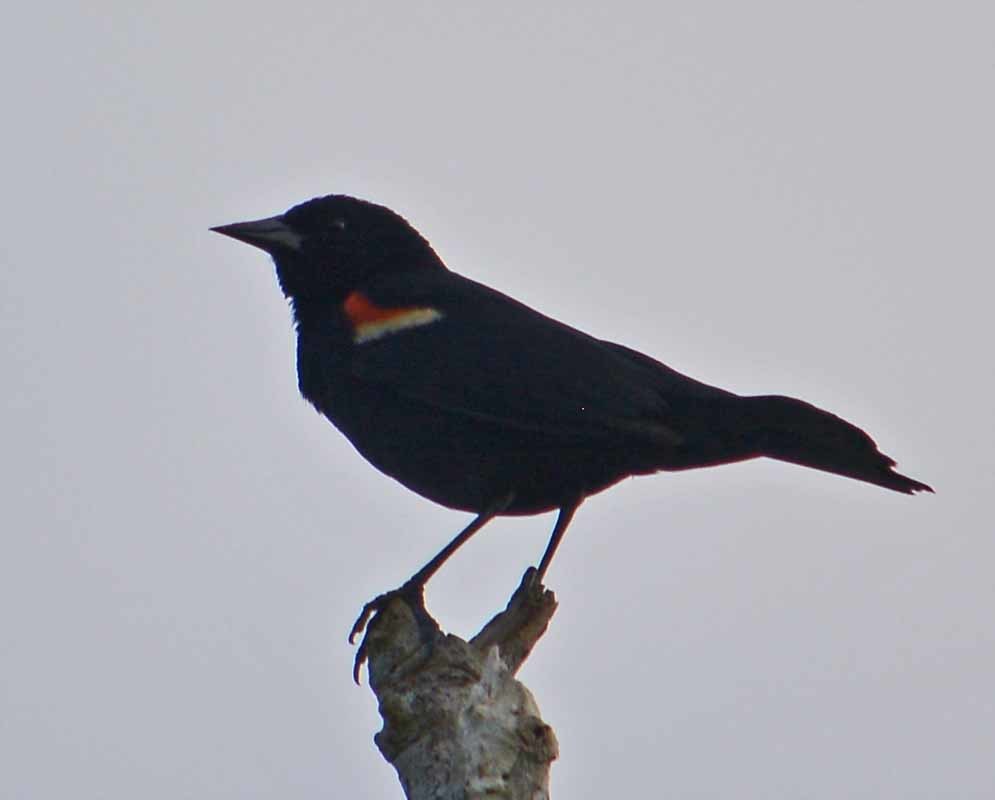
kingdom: Animalia
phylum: Chordata
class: Aves
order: Passeriformes
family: Icteridae
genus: Agelaius
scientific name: Agelaius phoeniceus
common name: Red-winged blackbird
